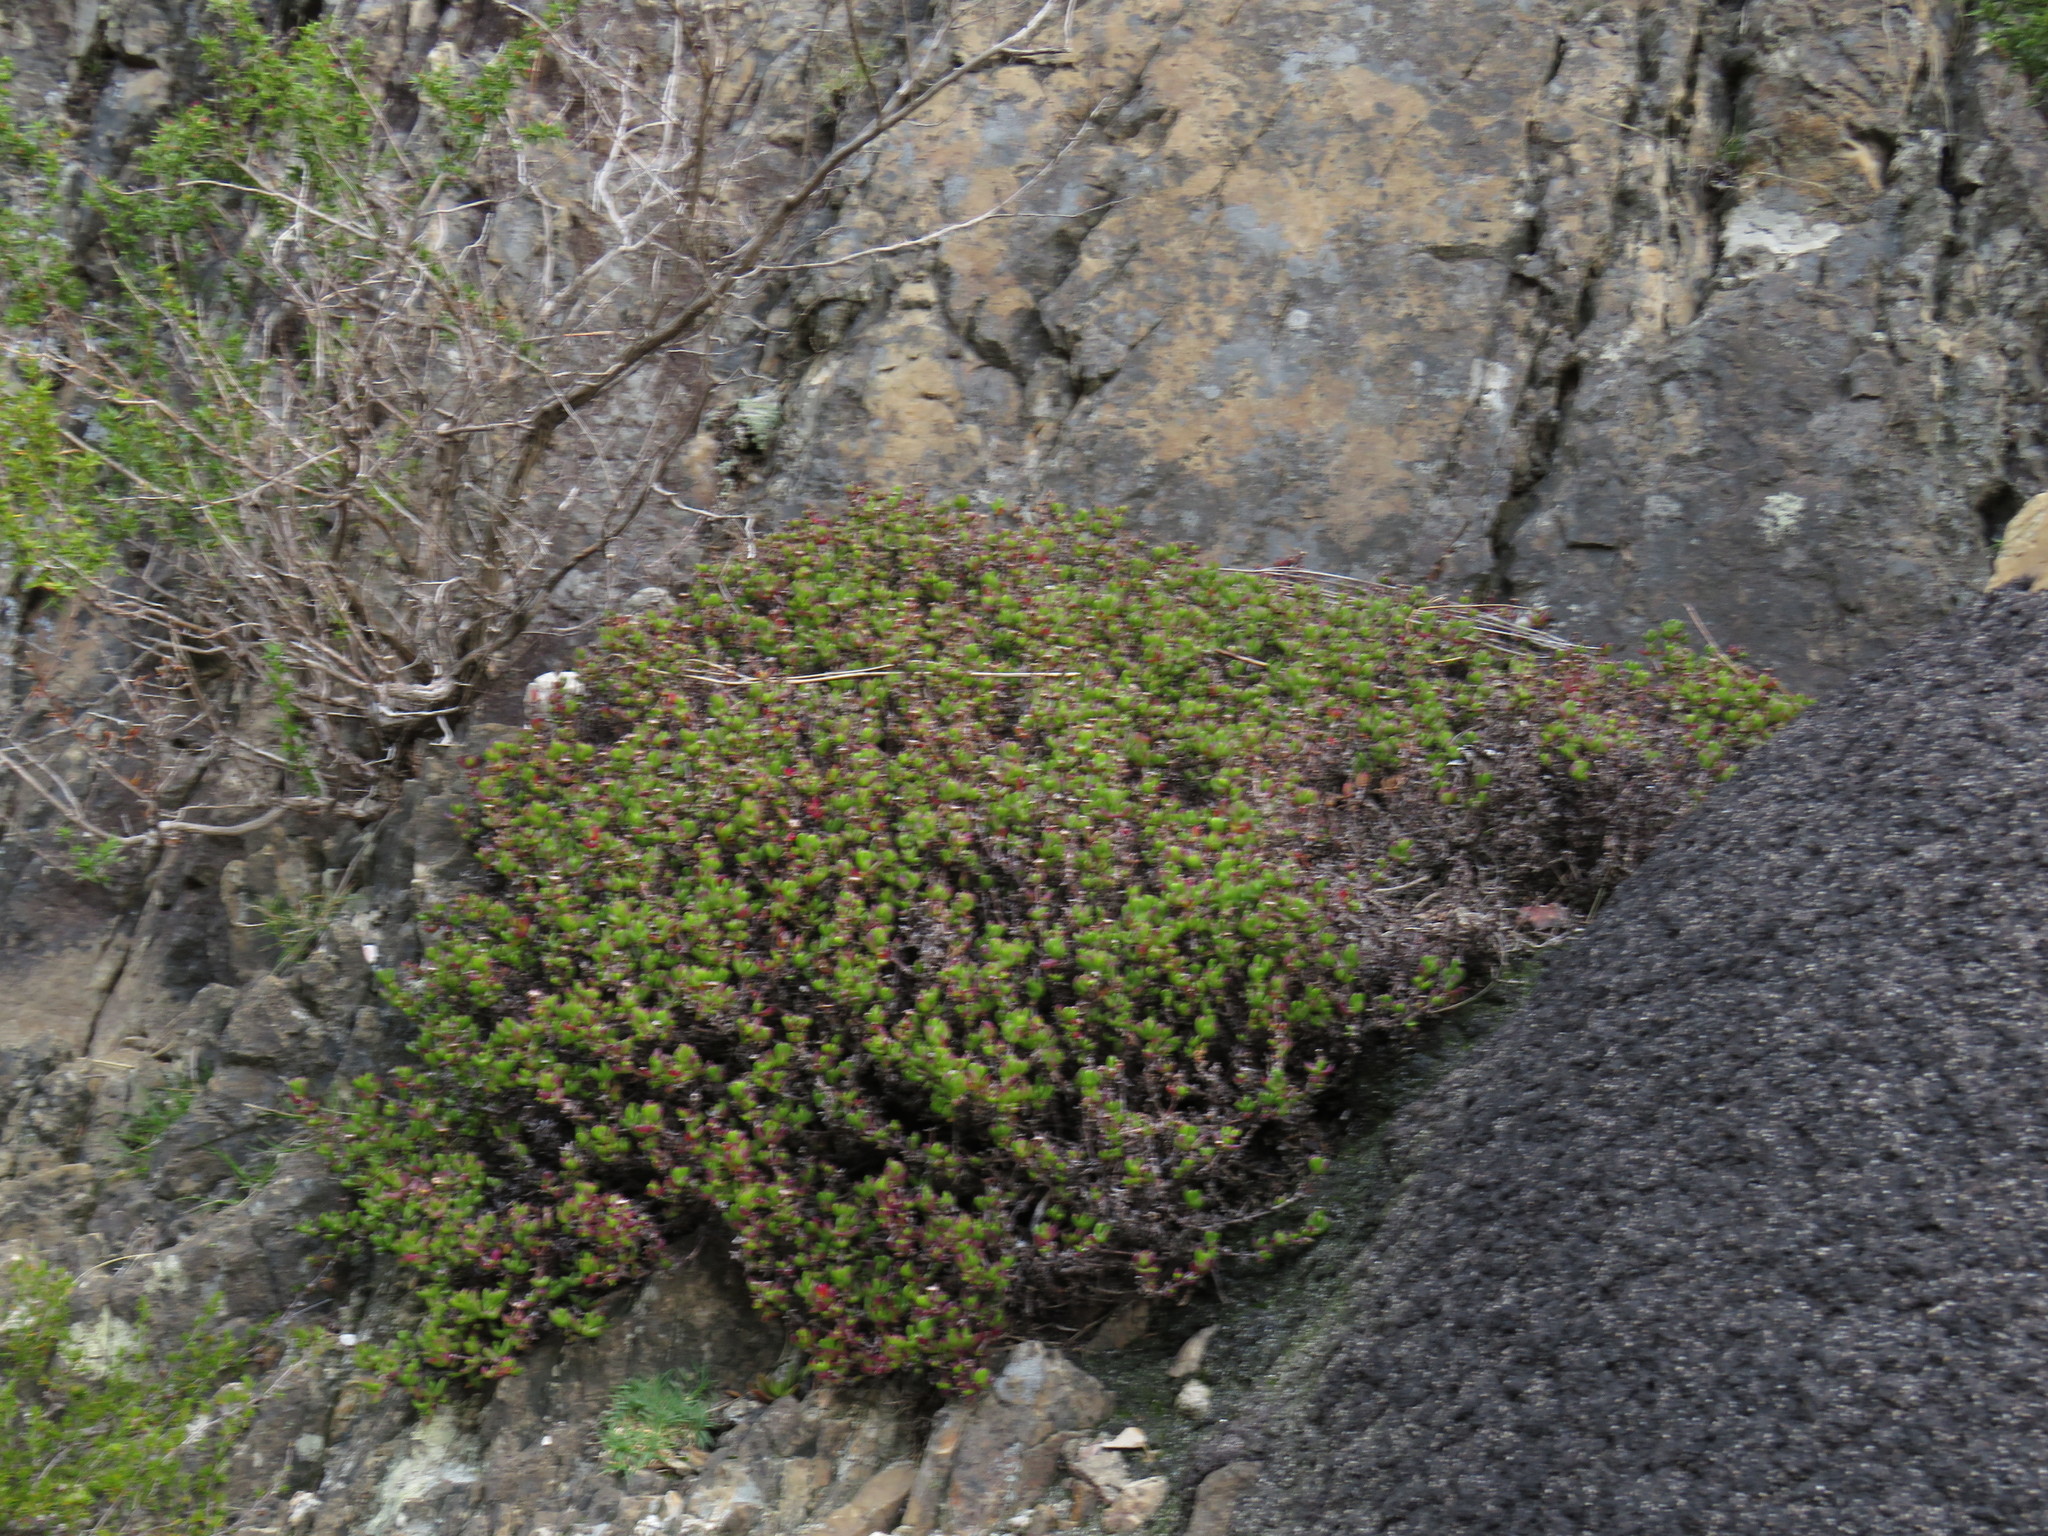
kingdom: Plantae
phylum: Tracheophyta
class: Magnoliopsida
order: Caryophyllales
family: Aizoaceae
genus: Esterhuysenia
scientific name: Esterhuysenia drepanophylla
